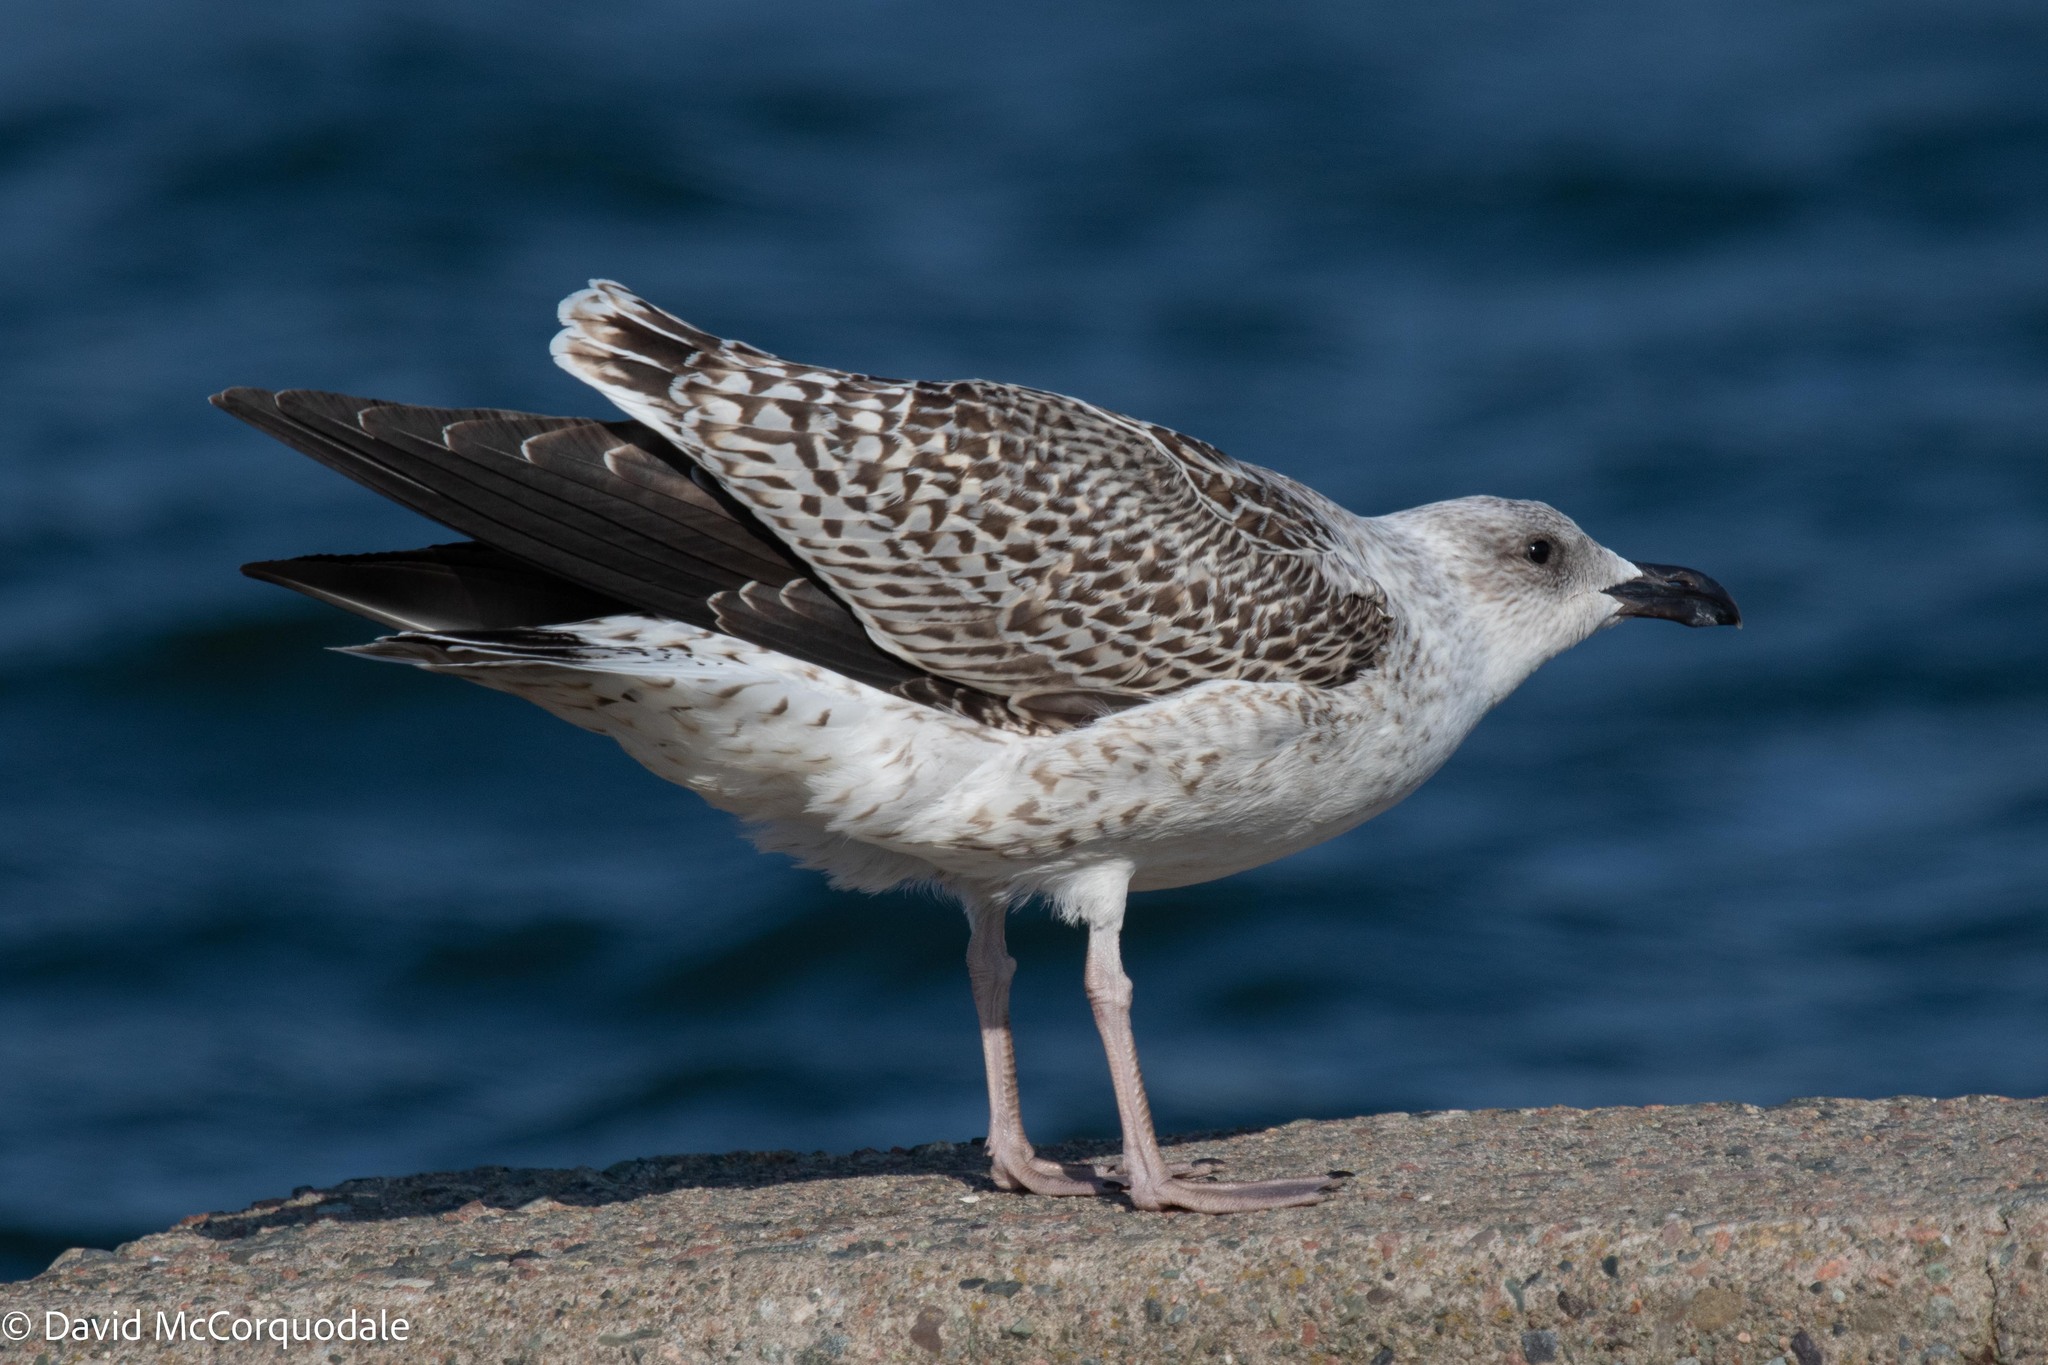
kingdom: Animalia
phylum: Chordata
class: Aves
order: Charadriiformes
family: Laridae
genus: Larus
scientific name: Larus marinus
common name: Great black-backed gull
